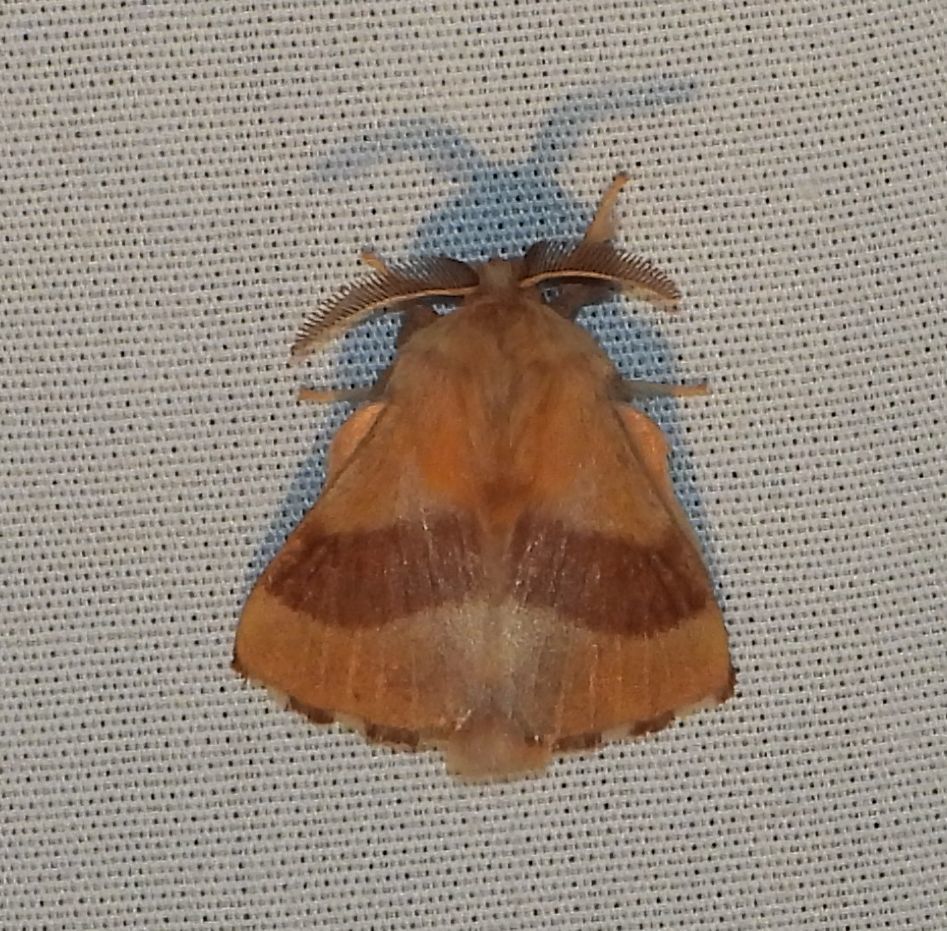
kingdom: Animalia
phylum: Arthropoda
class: Insecta
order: Lepidoptera
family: Lasiocampidae
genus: Malacosoma
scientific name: Malacosoma disstria
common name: Forest tent caterpillar
